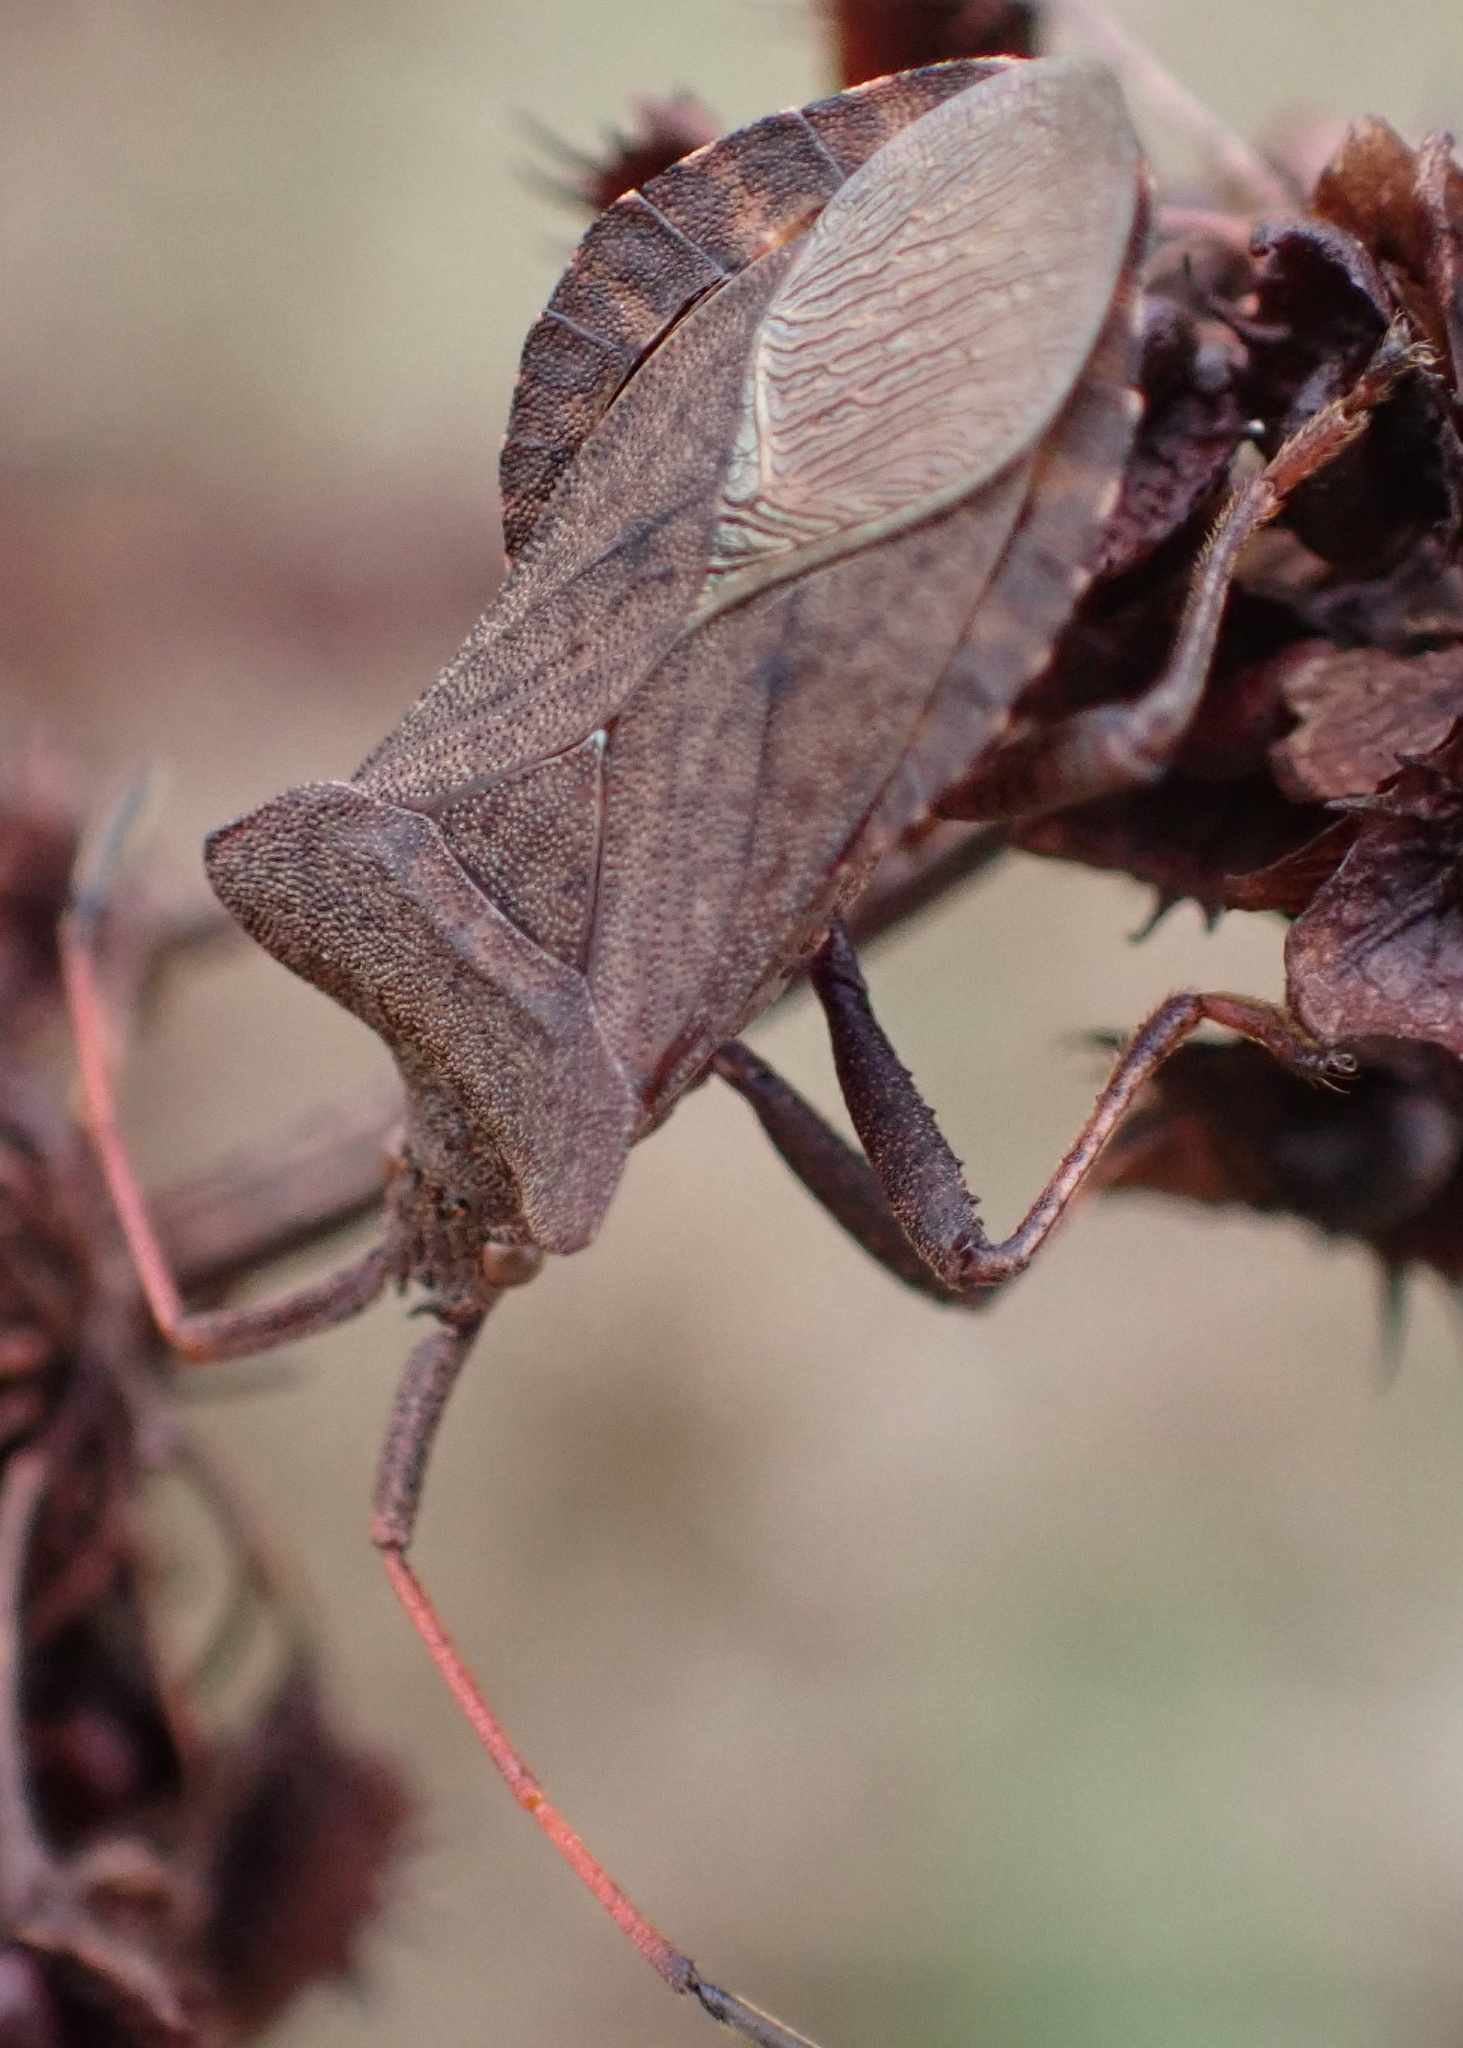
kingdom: Animalia
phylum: Arthropoda
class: Insecta
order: Hemiptera
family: Coreidae
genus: Coreus
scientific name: Coreus marginatus
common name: Dock bug
